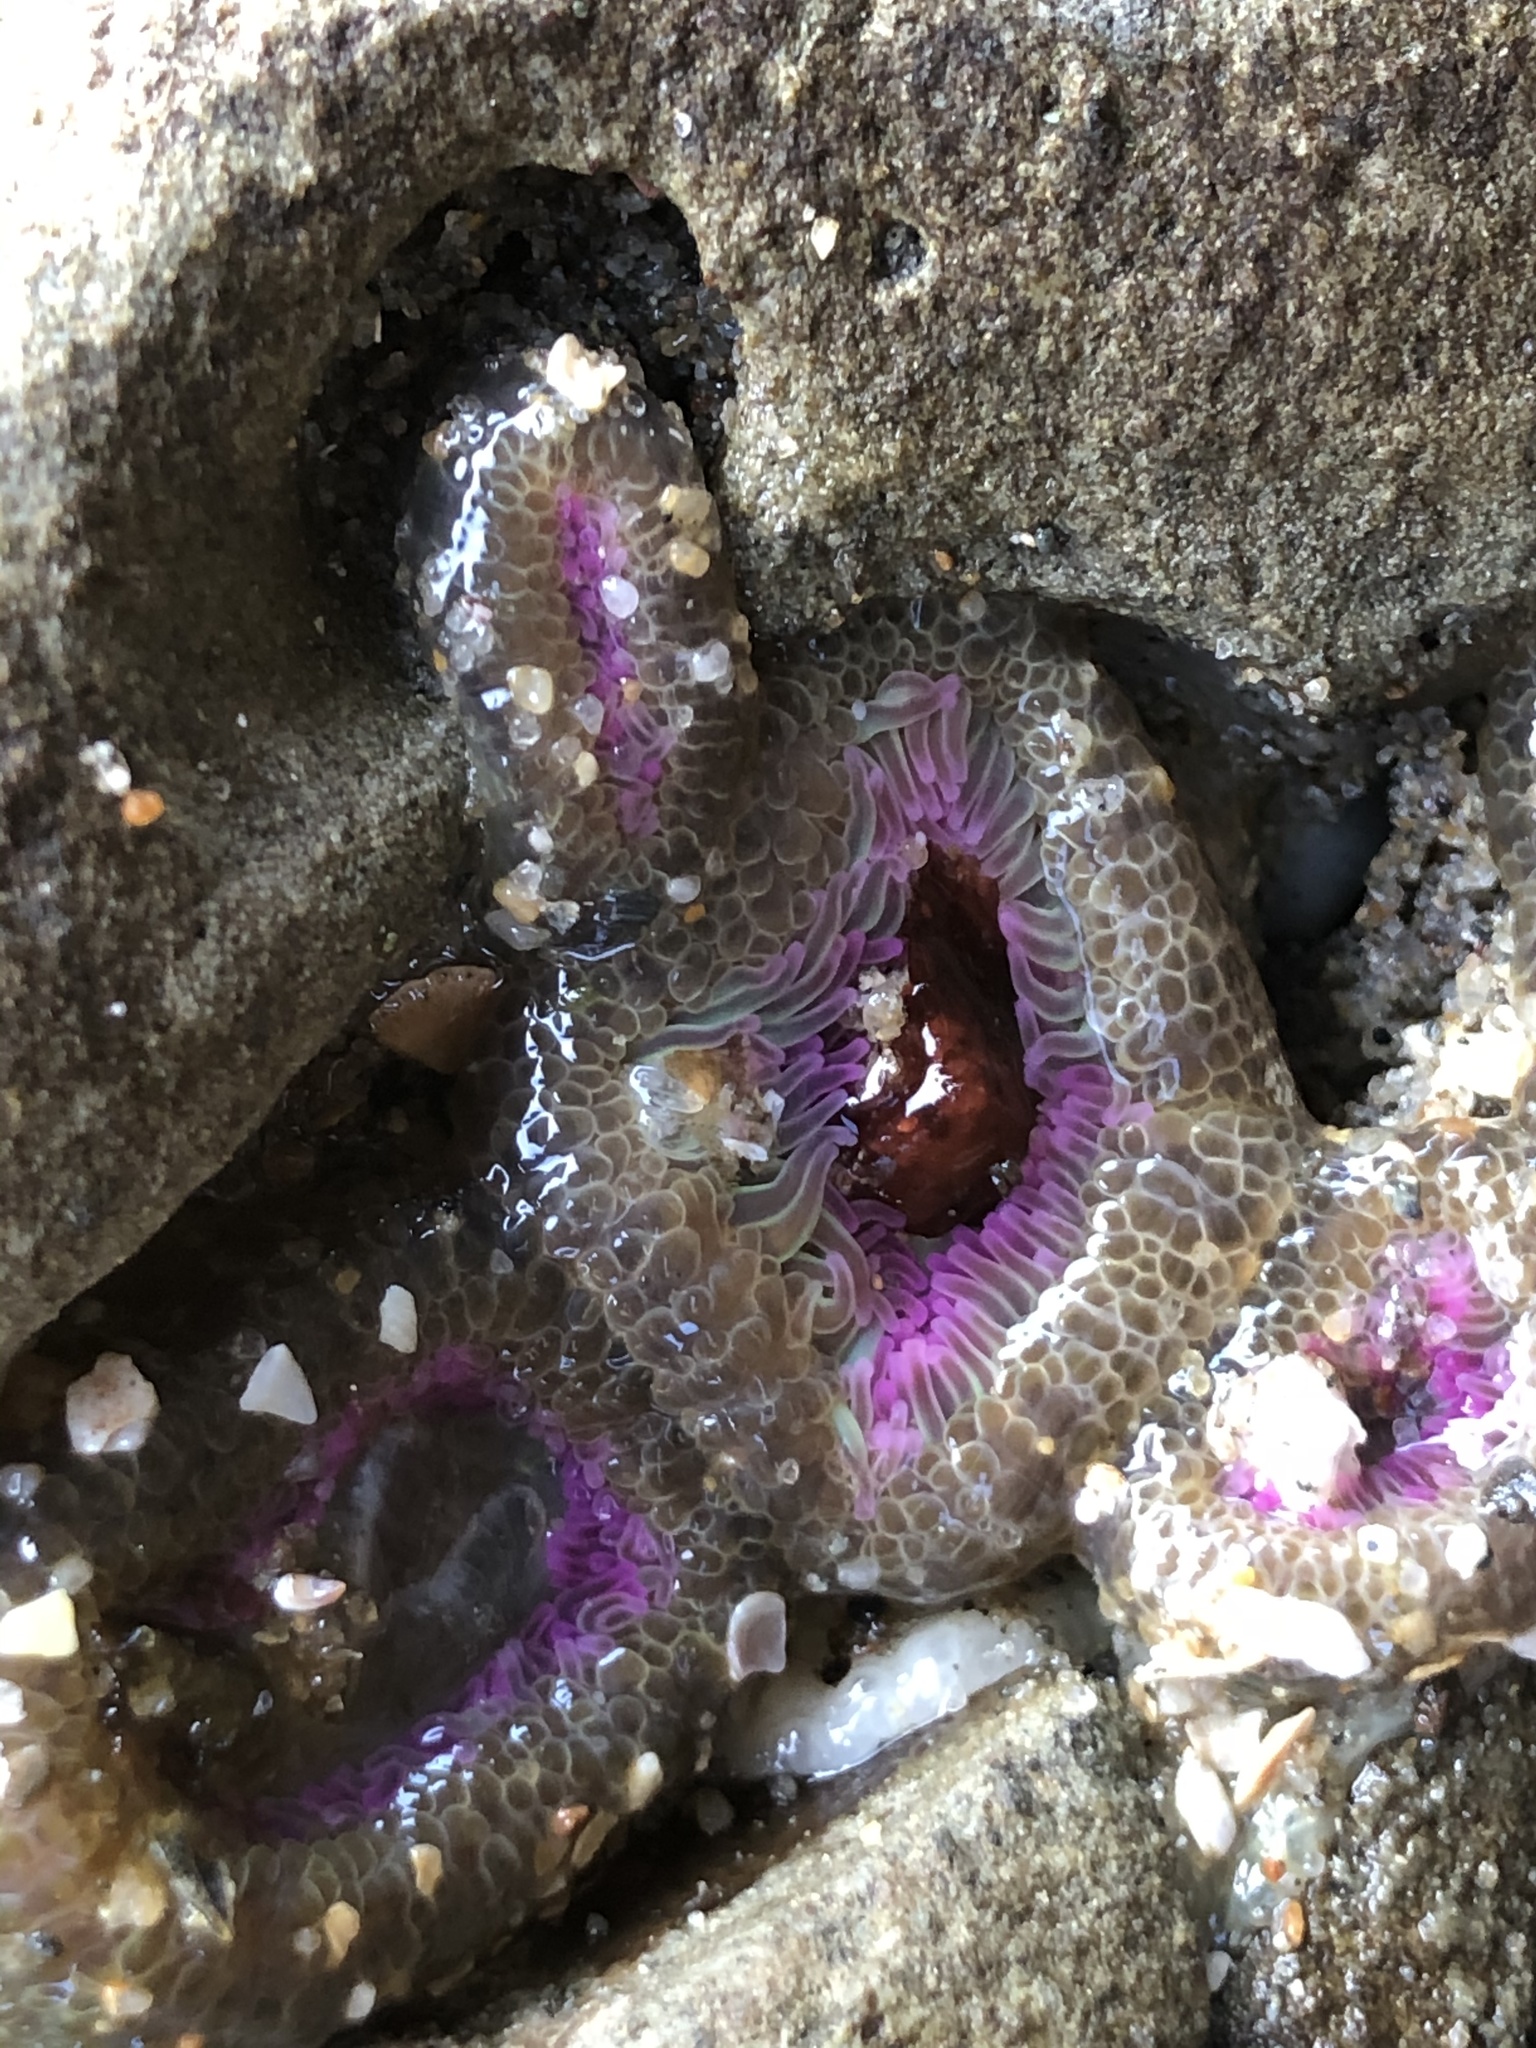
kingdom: Animalia
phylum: Cnidaria
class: Anthozoa
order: Actiniaria
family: Actiniidae
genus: Anthopleura
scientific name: Anthopleura elegantissima
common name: Clonal anemone
